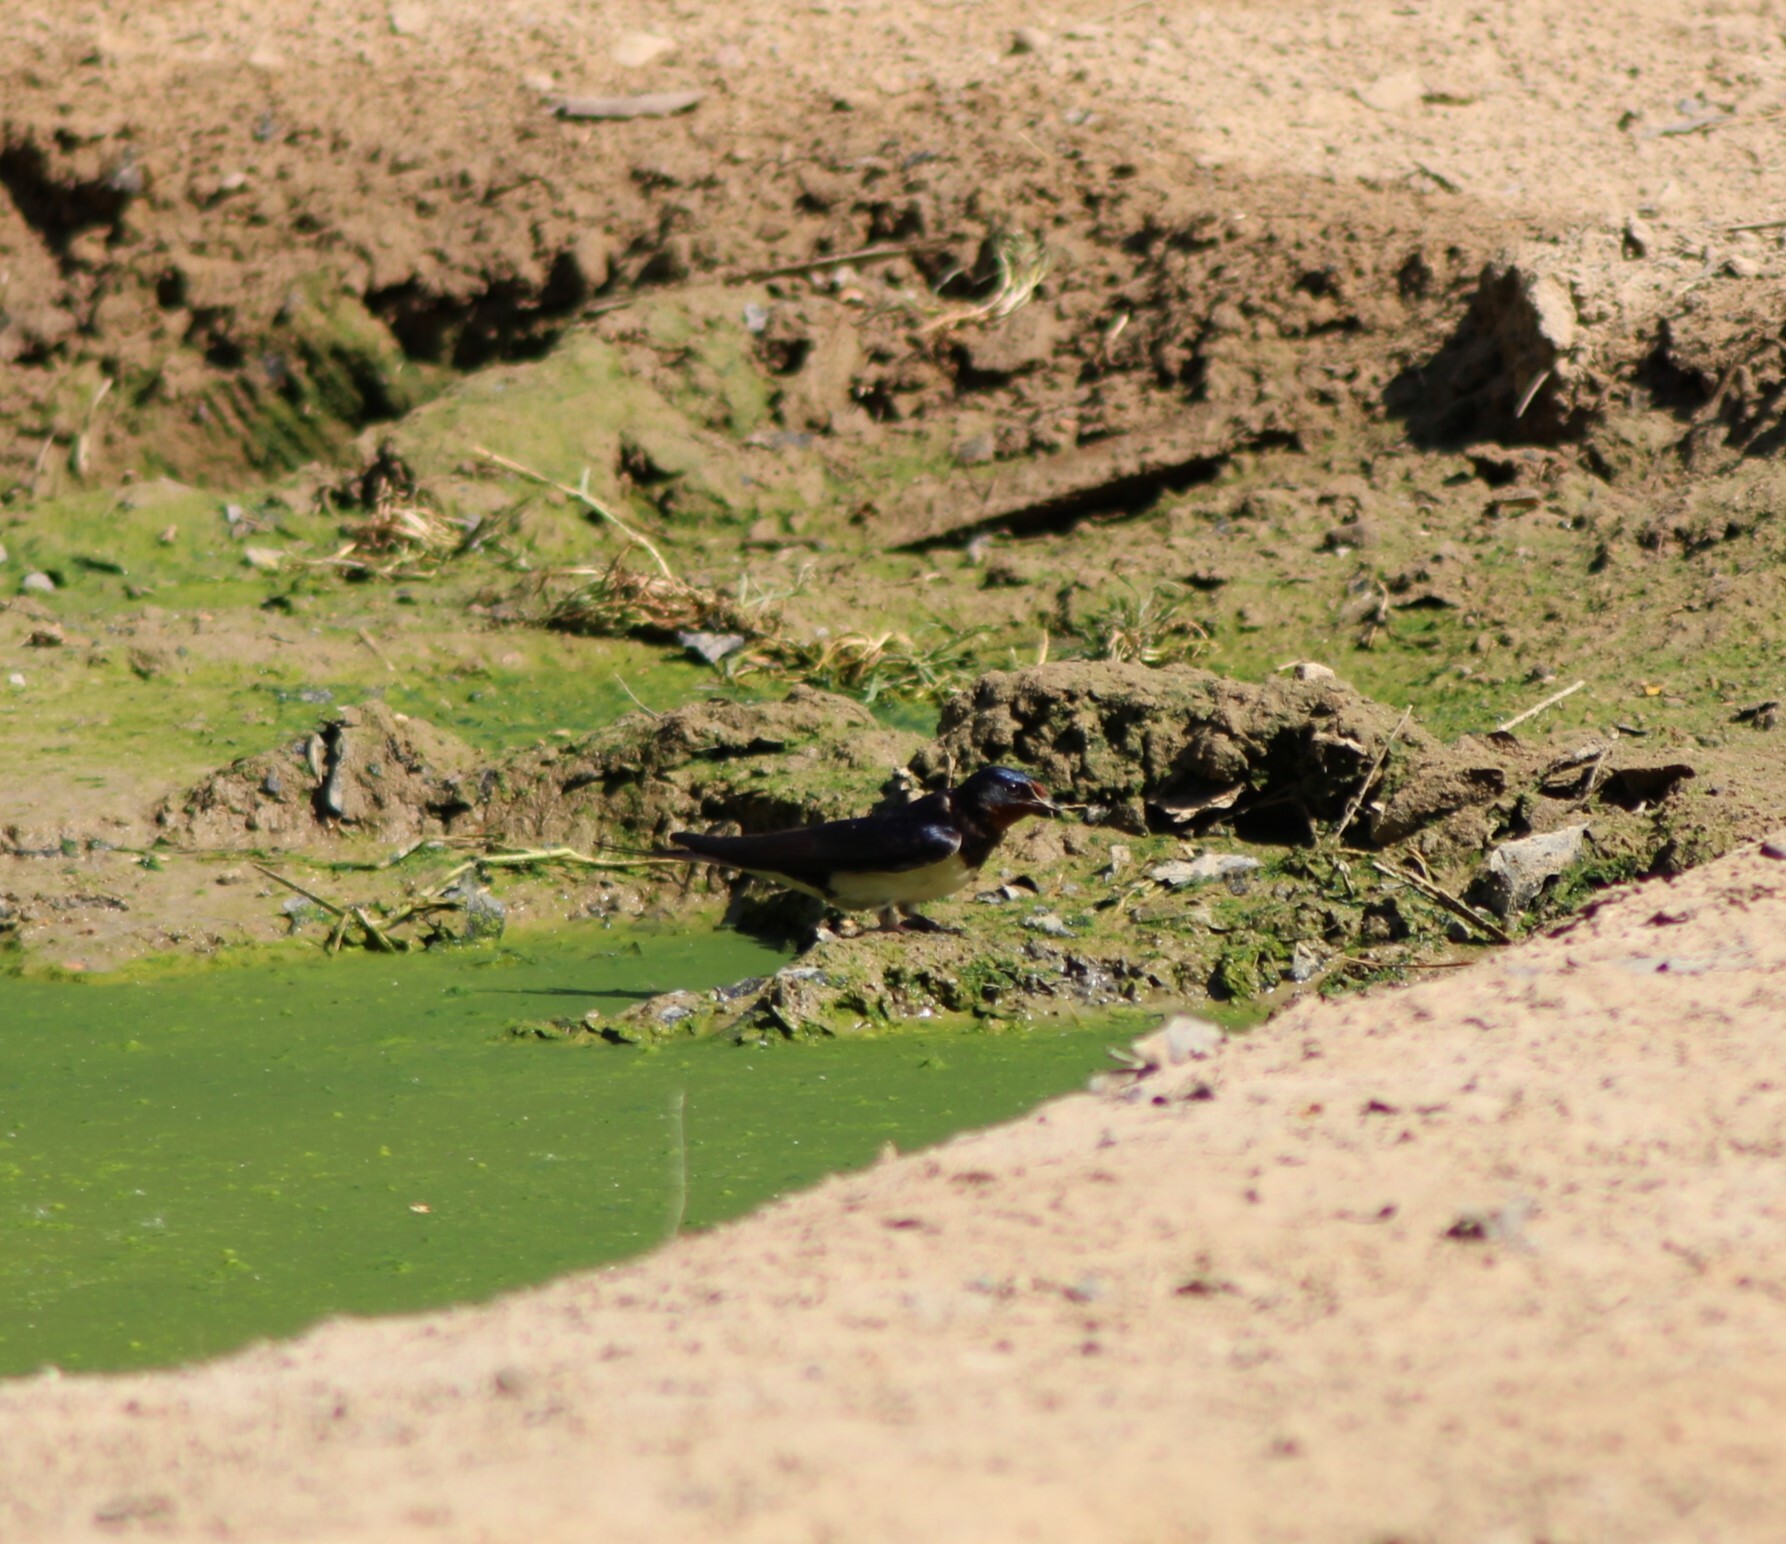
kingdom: Animalia
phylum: Chordata
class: Aves
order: Passeriformes
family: Hirundinidae
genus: Hirundo
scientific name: Hirundo rustica
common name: Barn swallow
